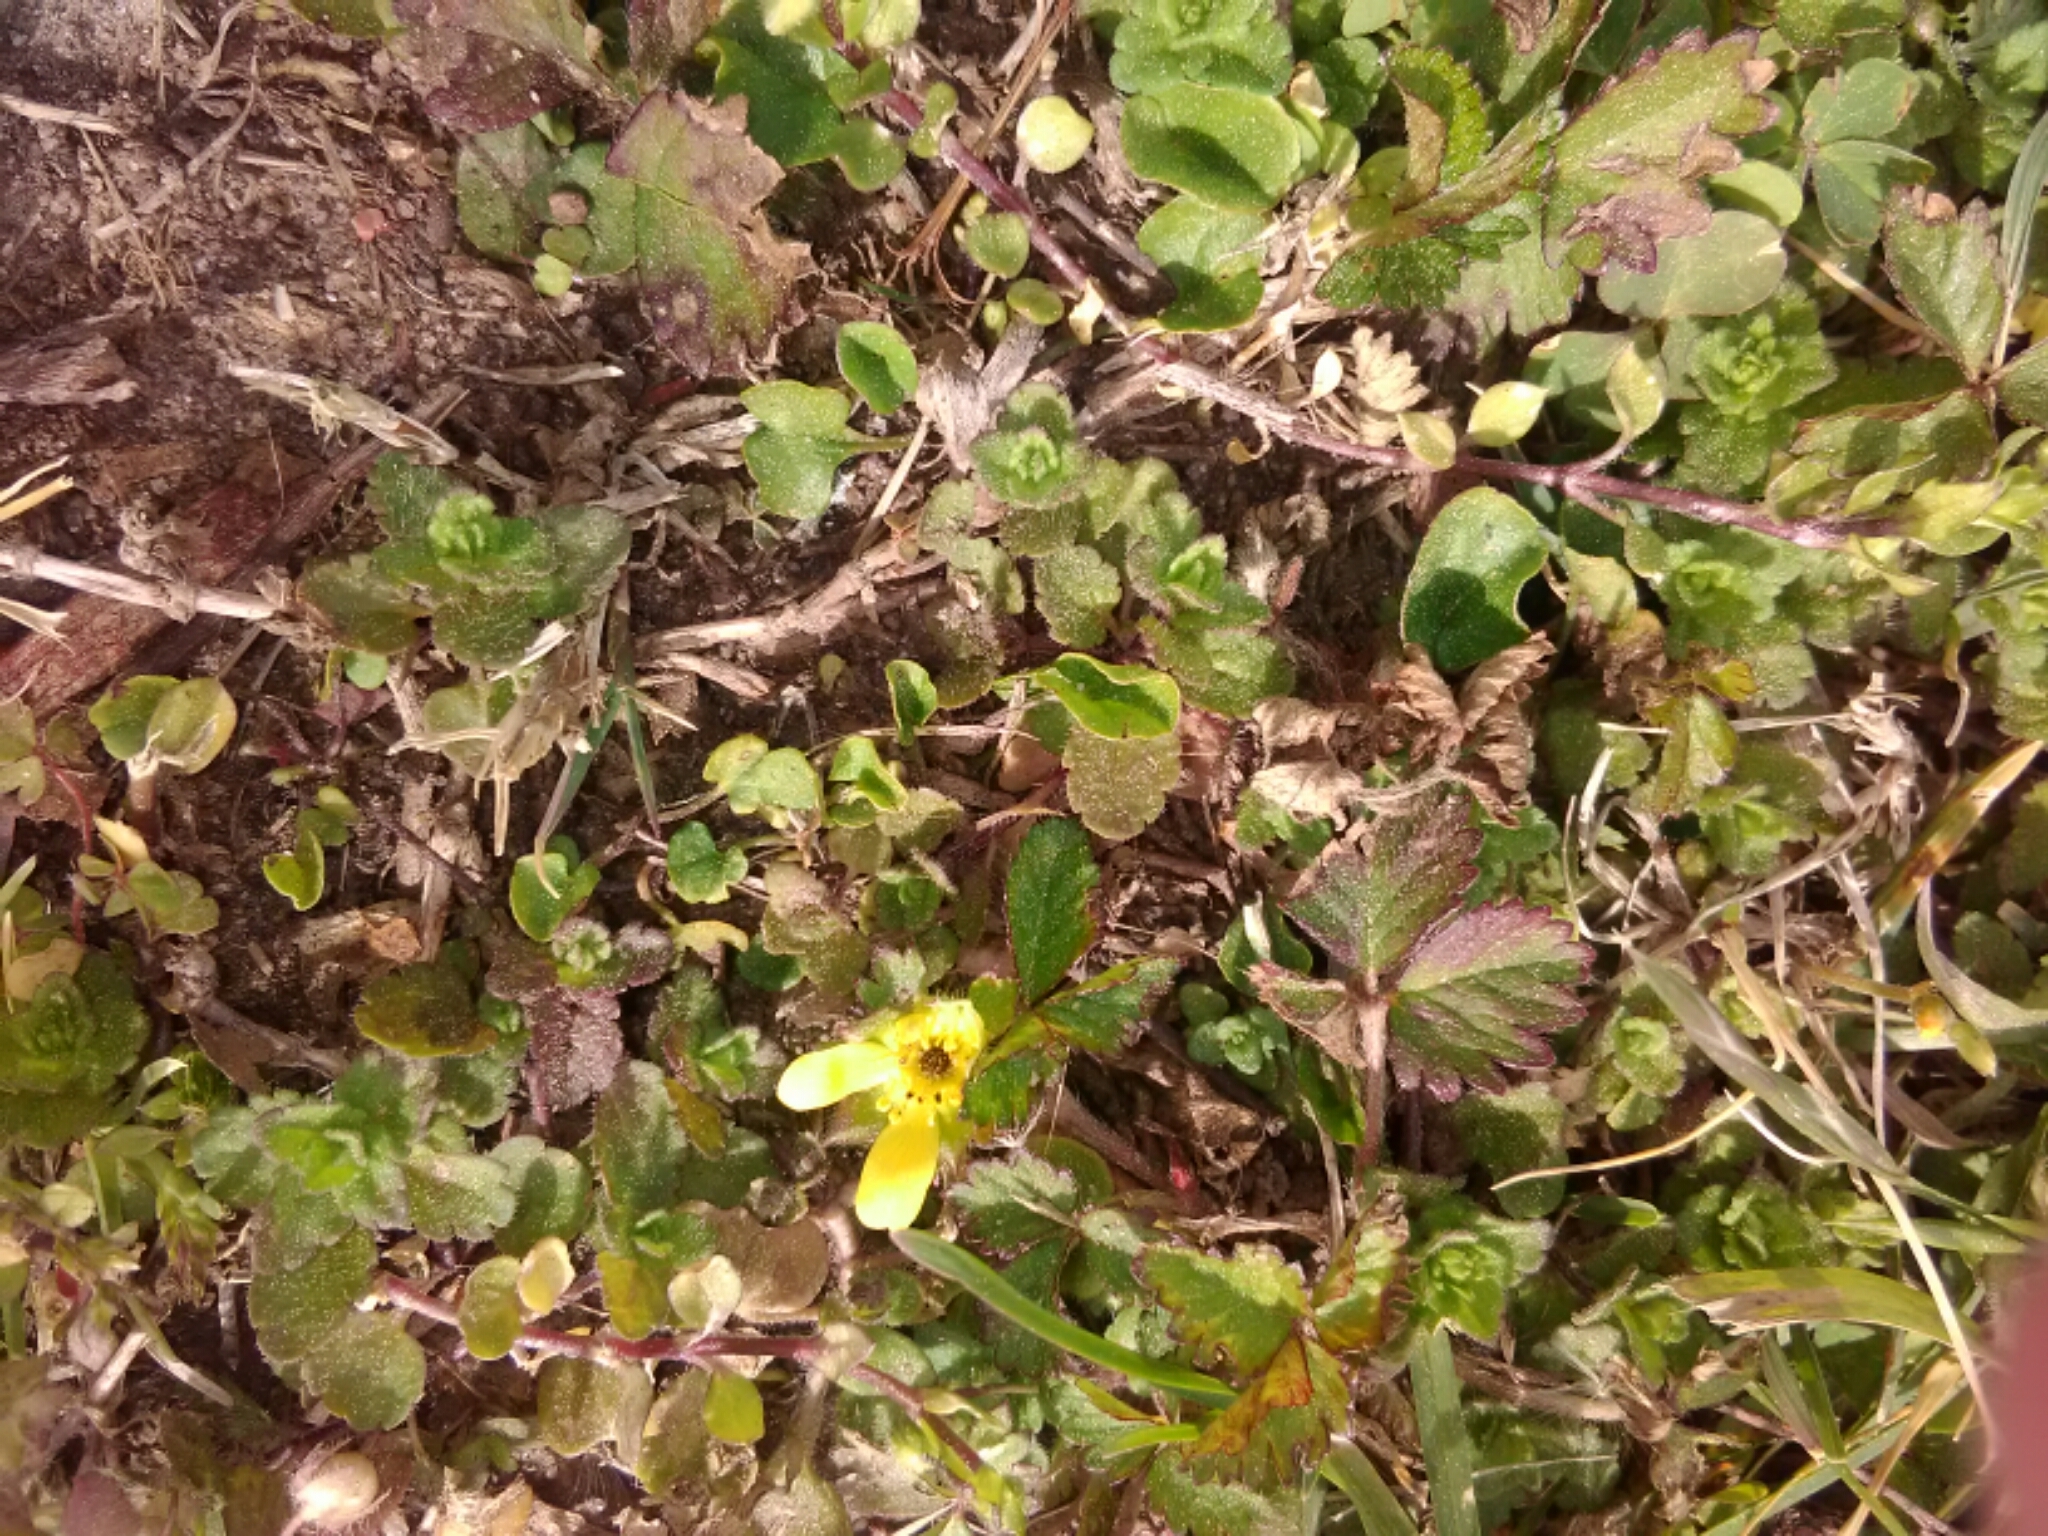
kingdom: Plantae
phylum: Tracheophyta
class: Magnoliopsida
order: Rosales
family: Rosaceae
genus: Potentilla
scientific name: Potentilla indica
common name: Yellow-flowered strawberry
